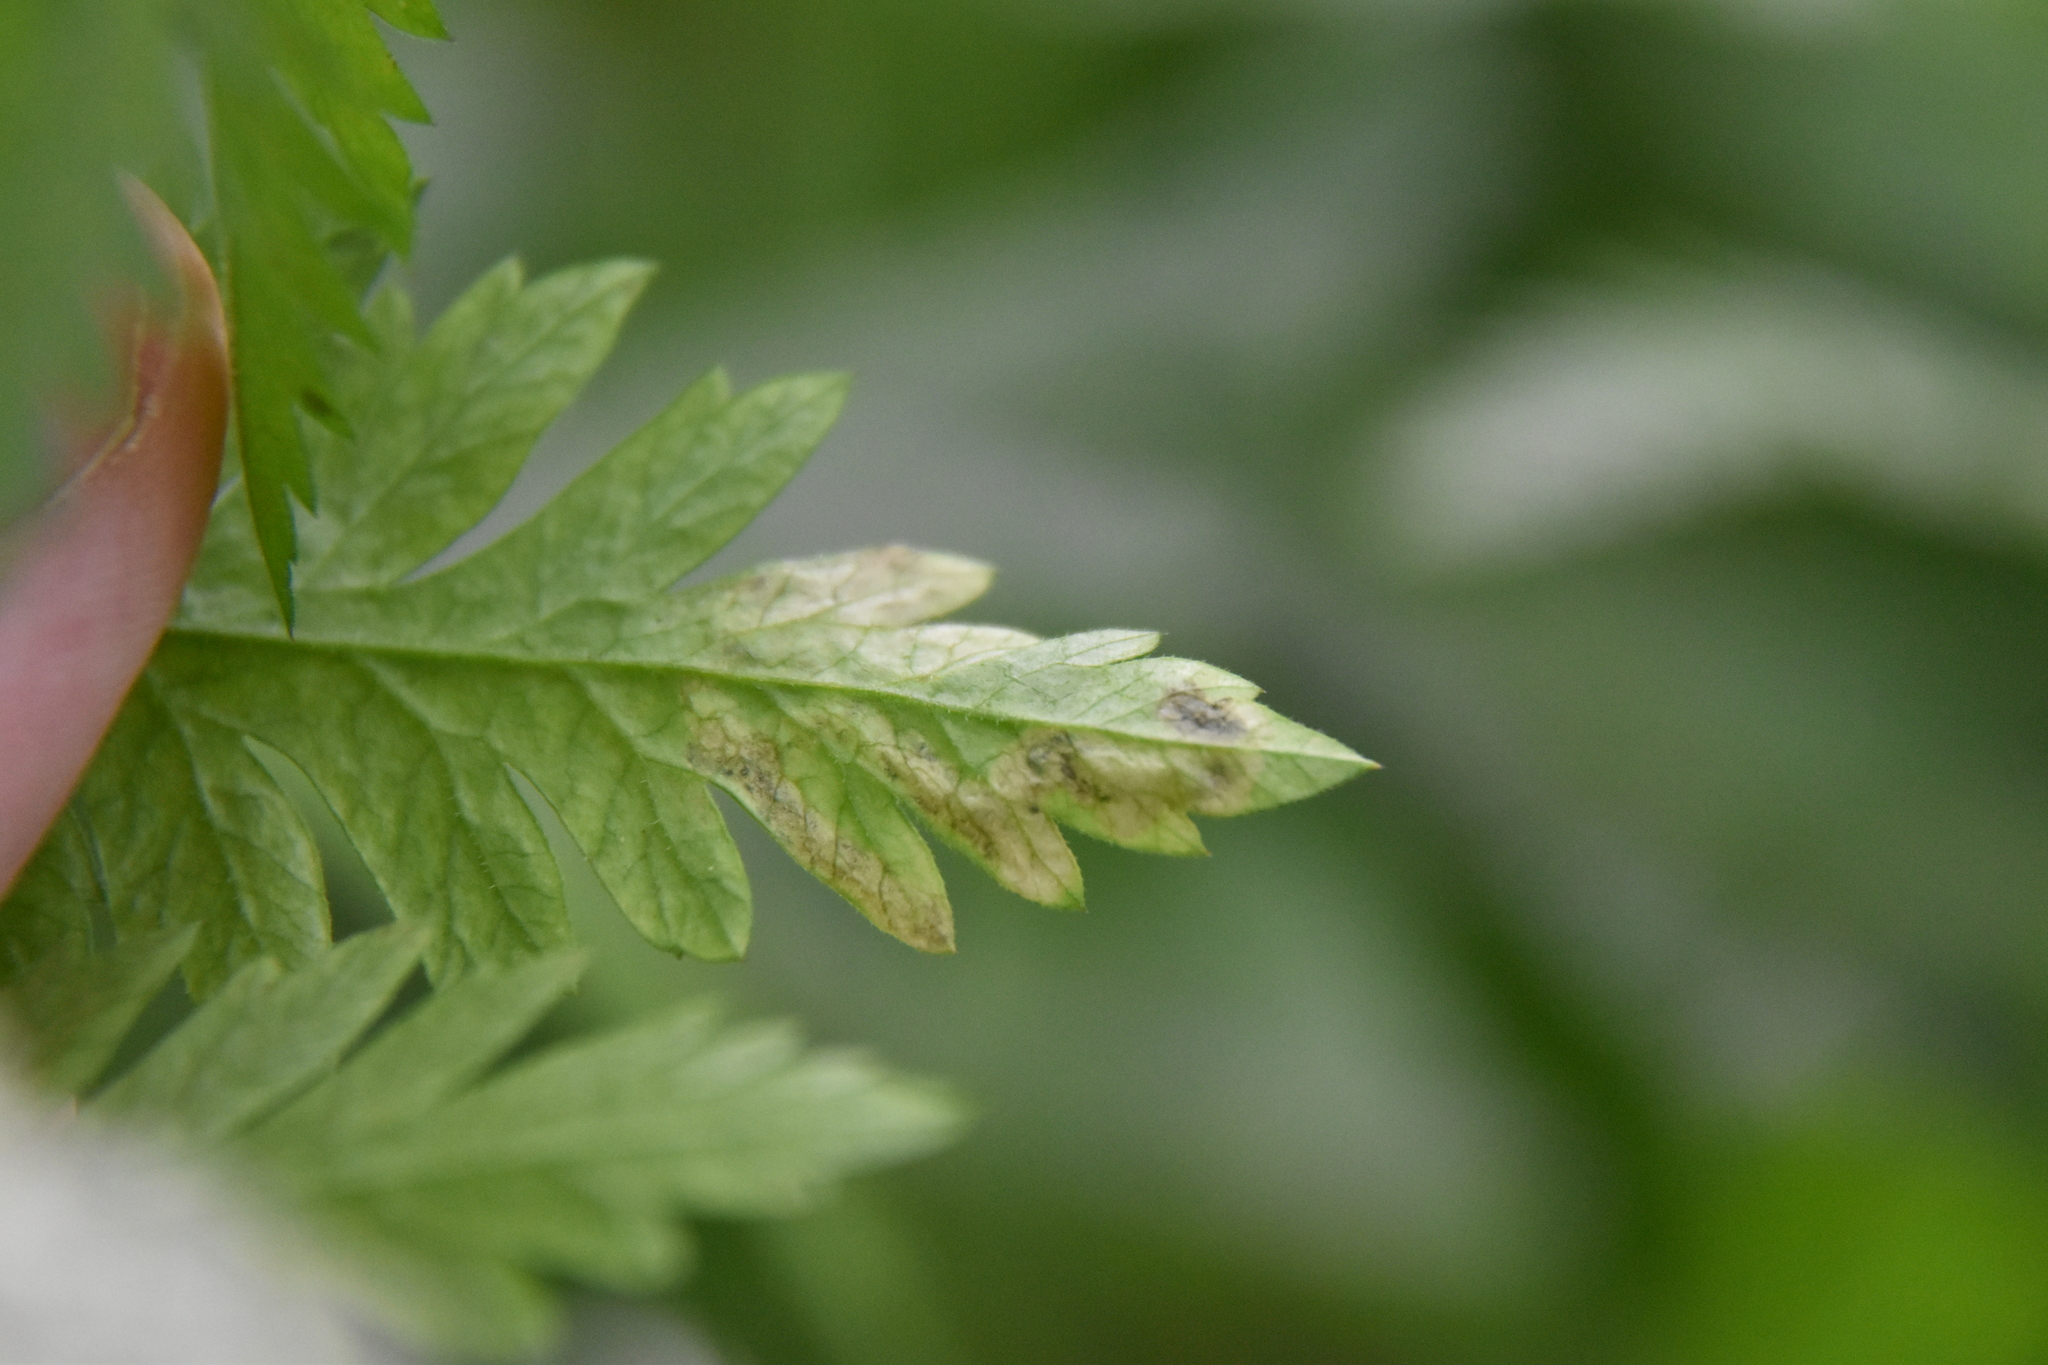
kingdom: Animalia
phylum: Arthropoda
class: Insecta
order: Diptera
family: Agromyzidae
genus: Phytomyza
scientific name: Phytomyza chaerophylli
